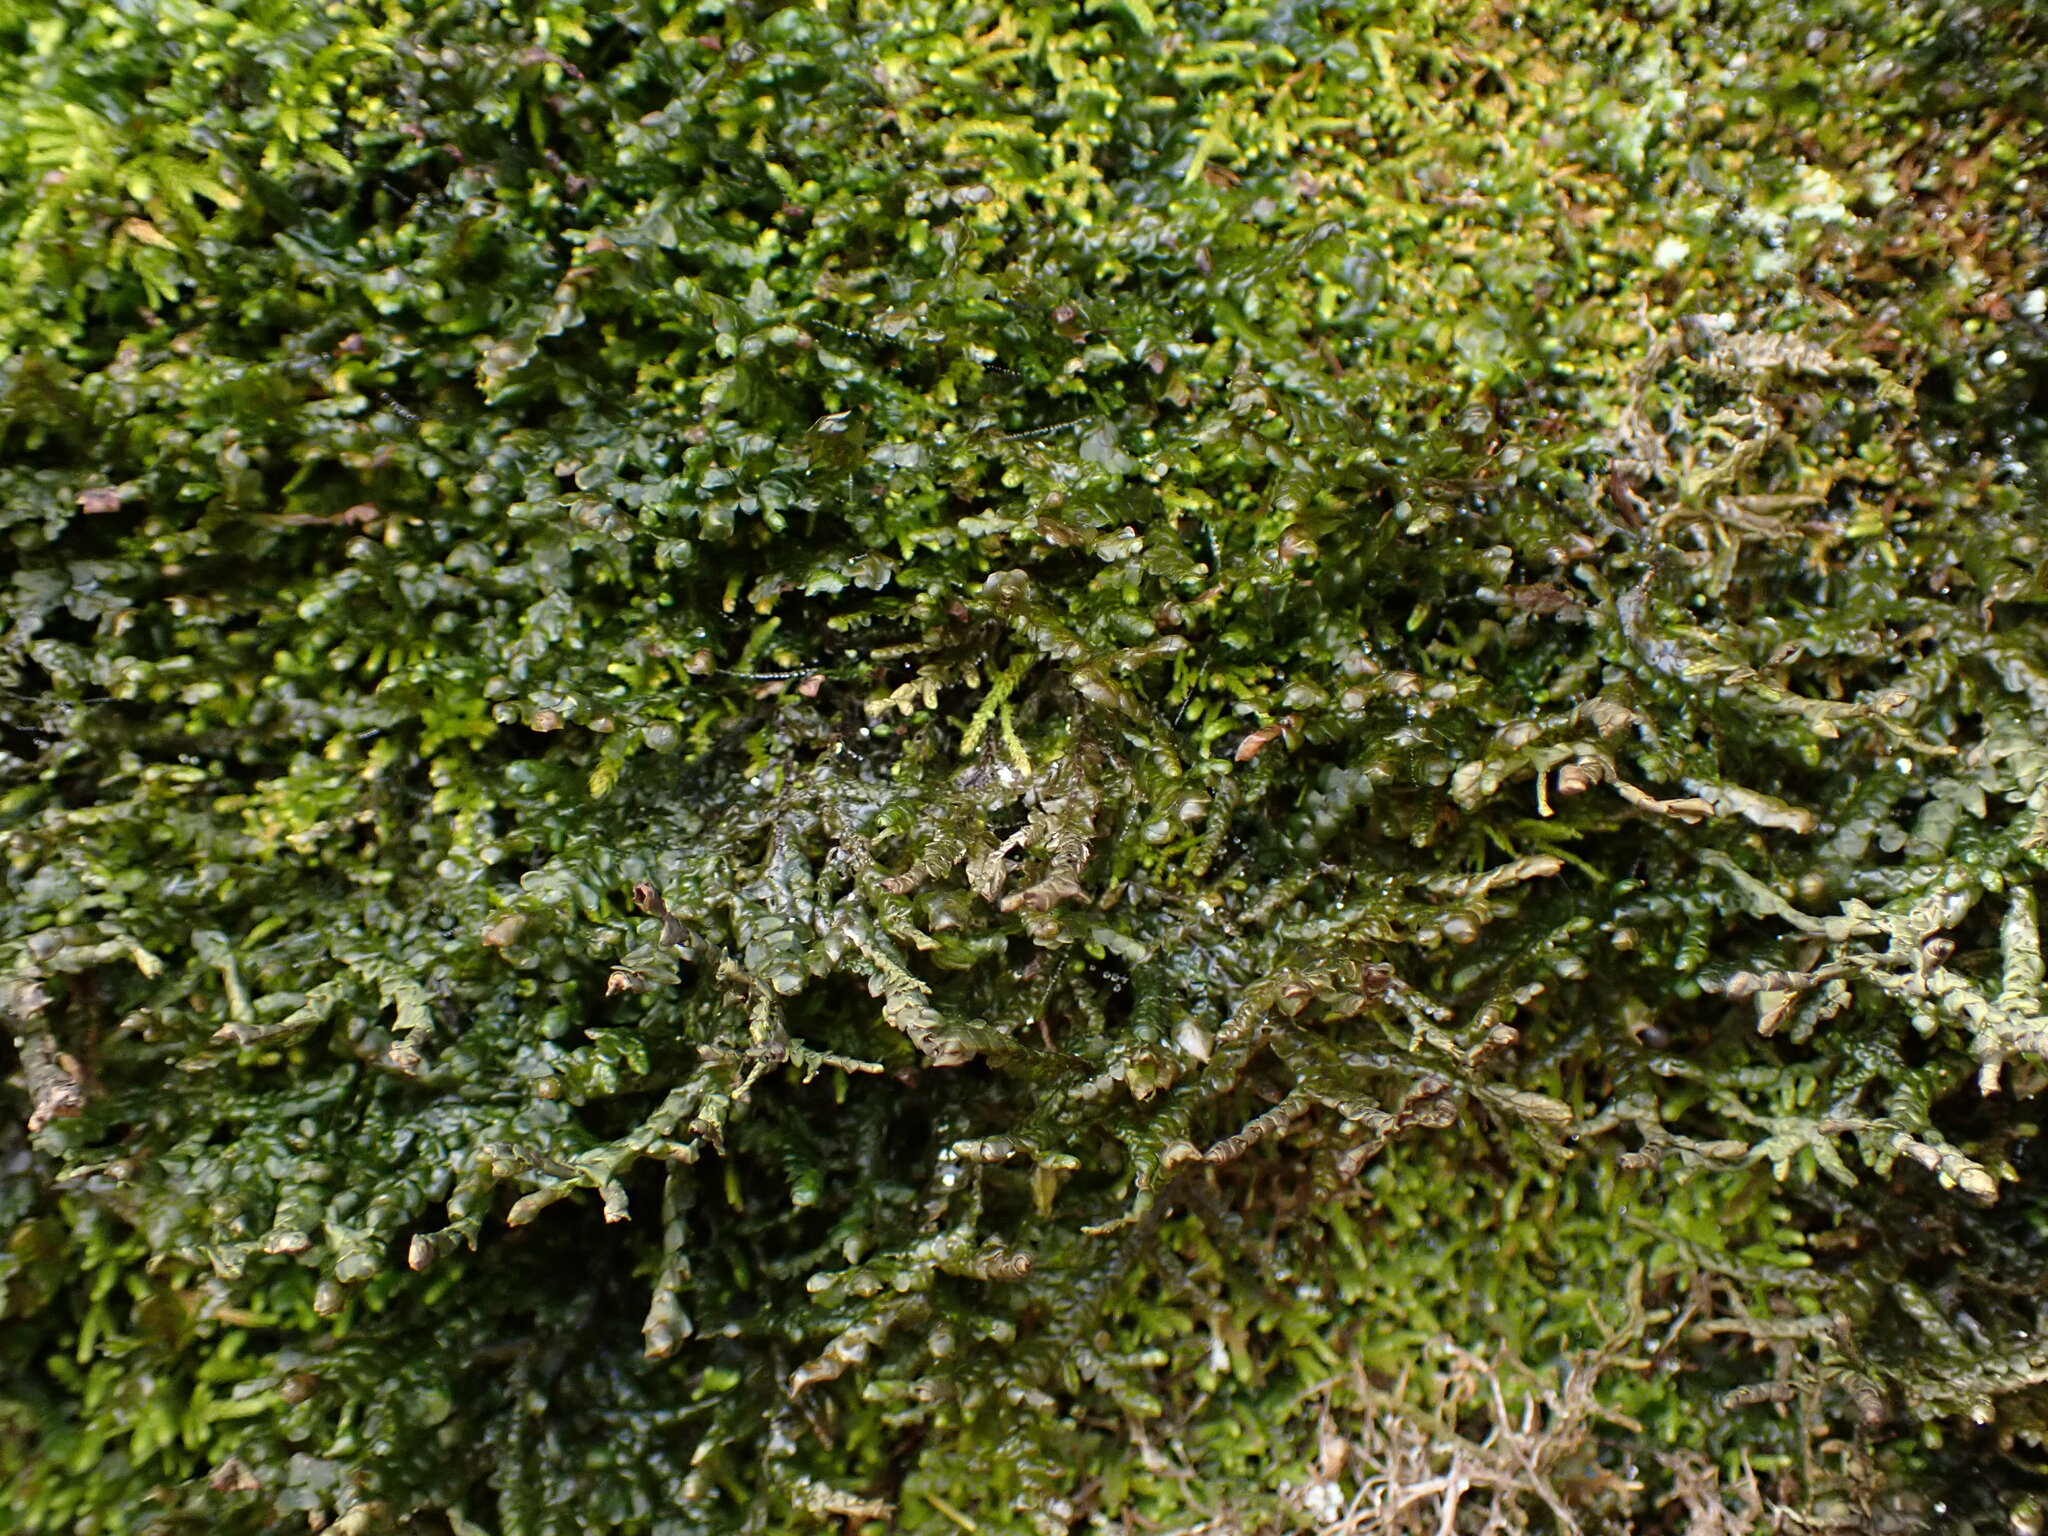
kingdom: Plantae
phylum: Marchantiophyta
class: Jungermanniopsida
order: Porellales
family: Porellaceae
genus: Porella
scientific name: Porella cordaeana
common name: Cliff scalewort
